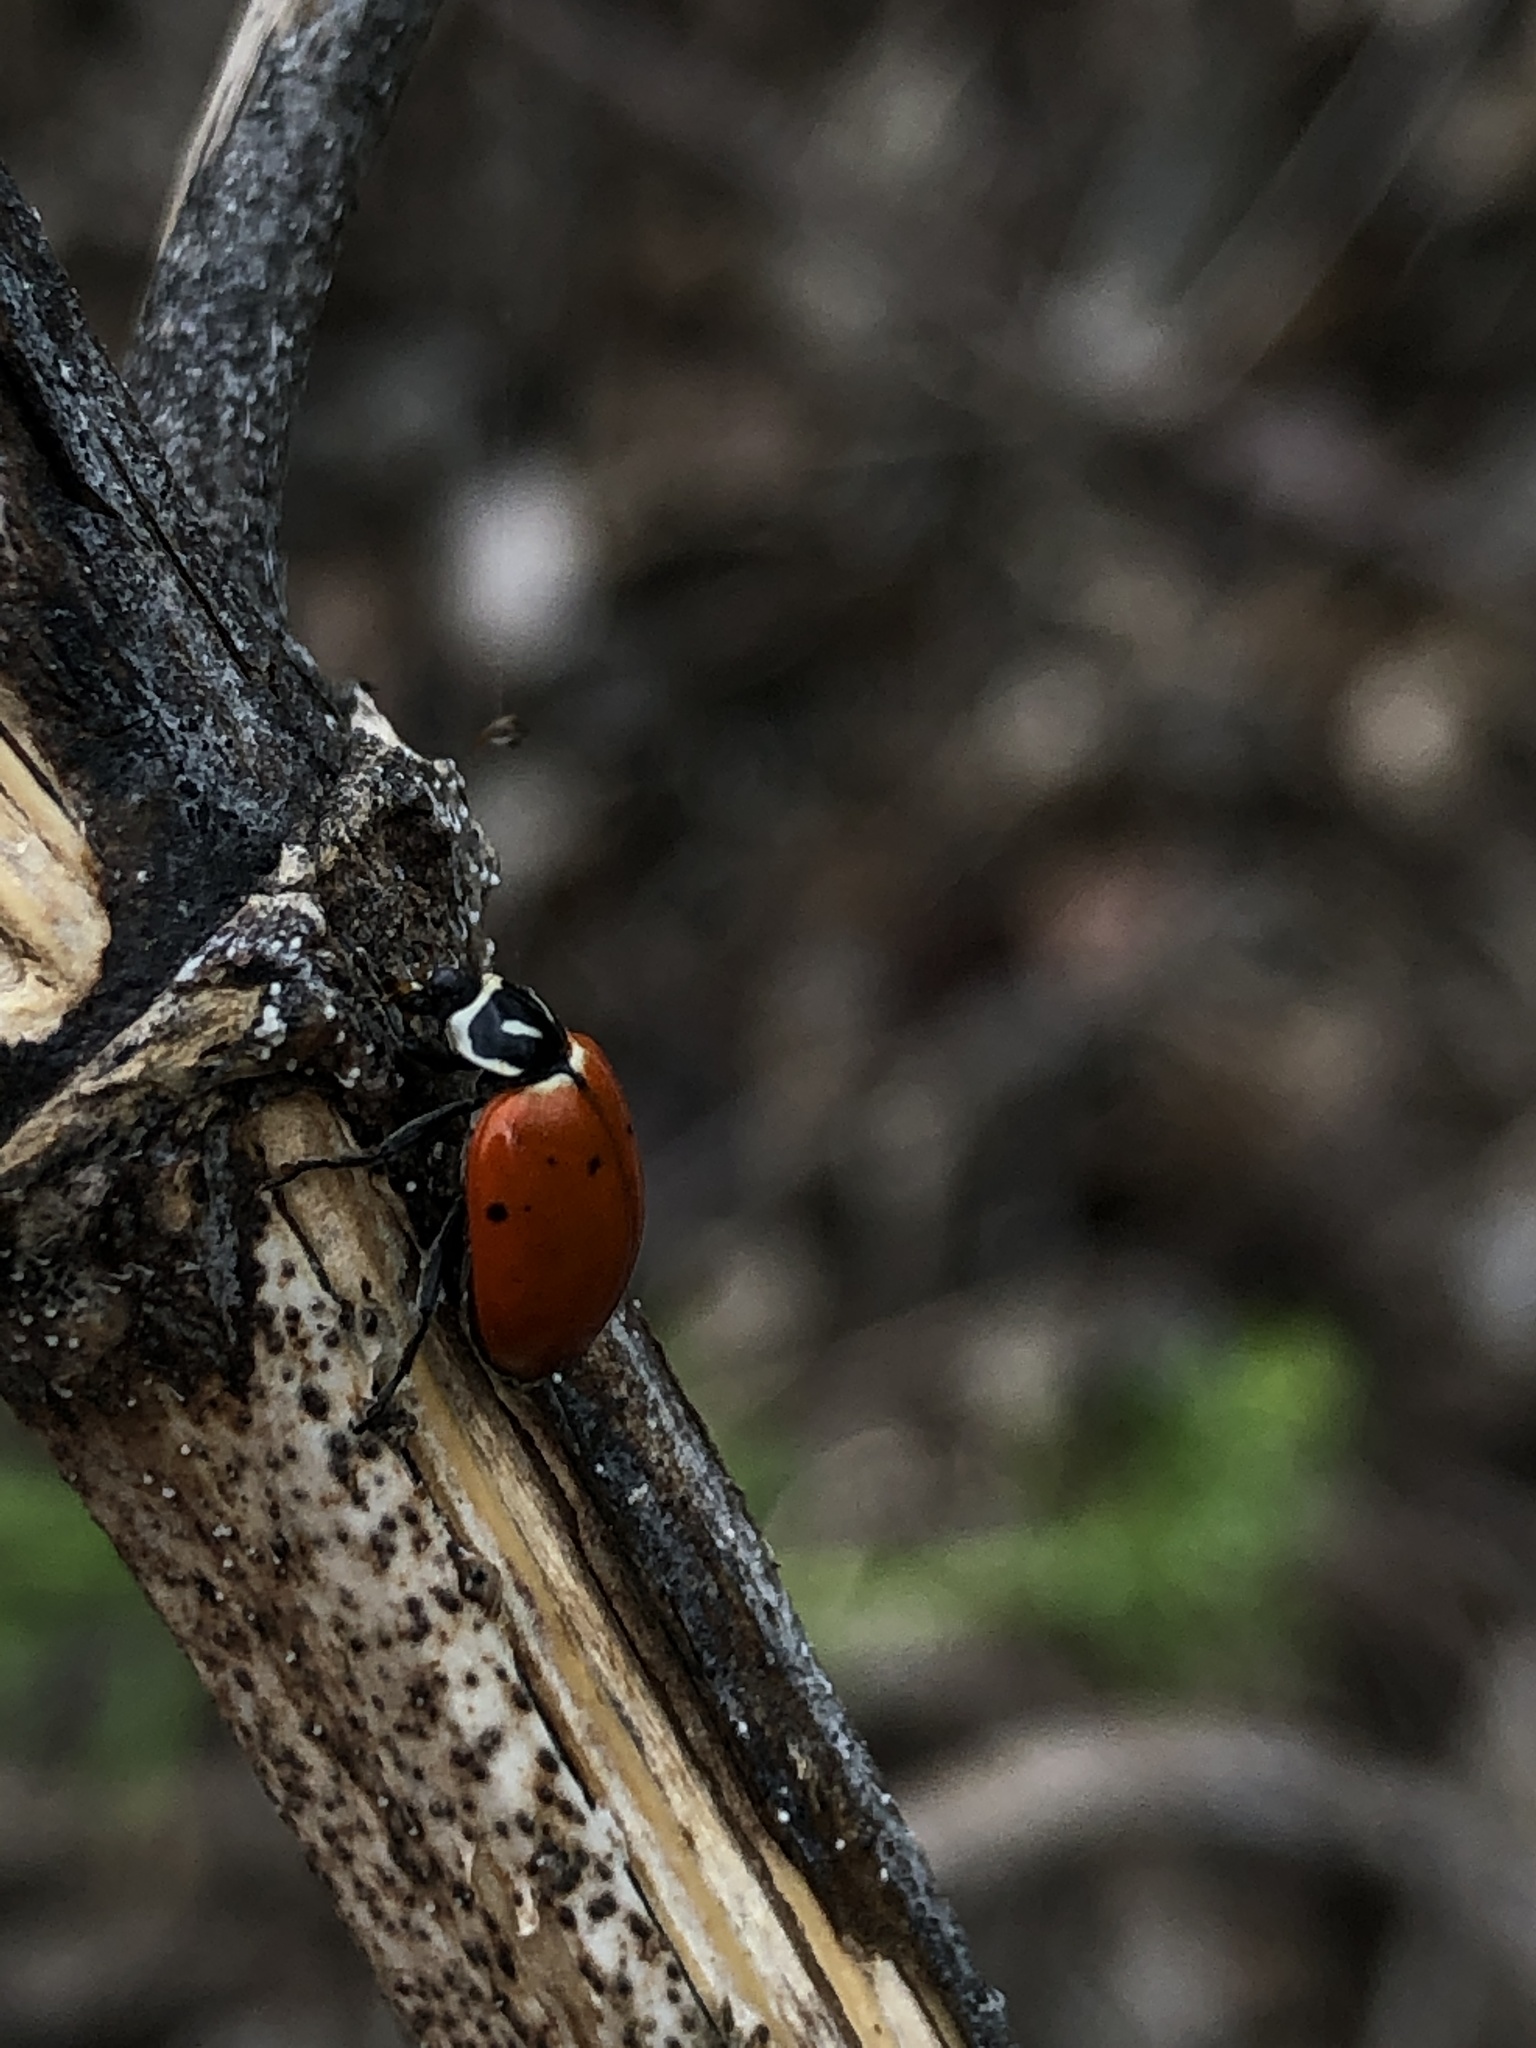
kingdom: Animalia
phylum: Arthropoda
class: Insecta
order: Coleoptera
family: Coccinellidae
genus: Hippodamia
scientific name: Hippodamia convergens
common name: Convergent lady beetle
